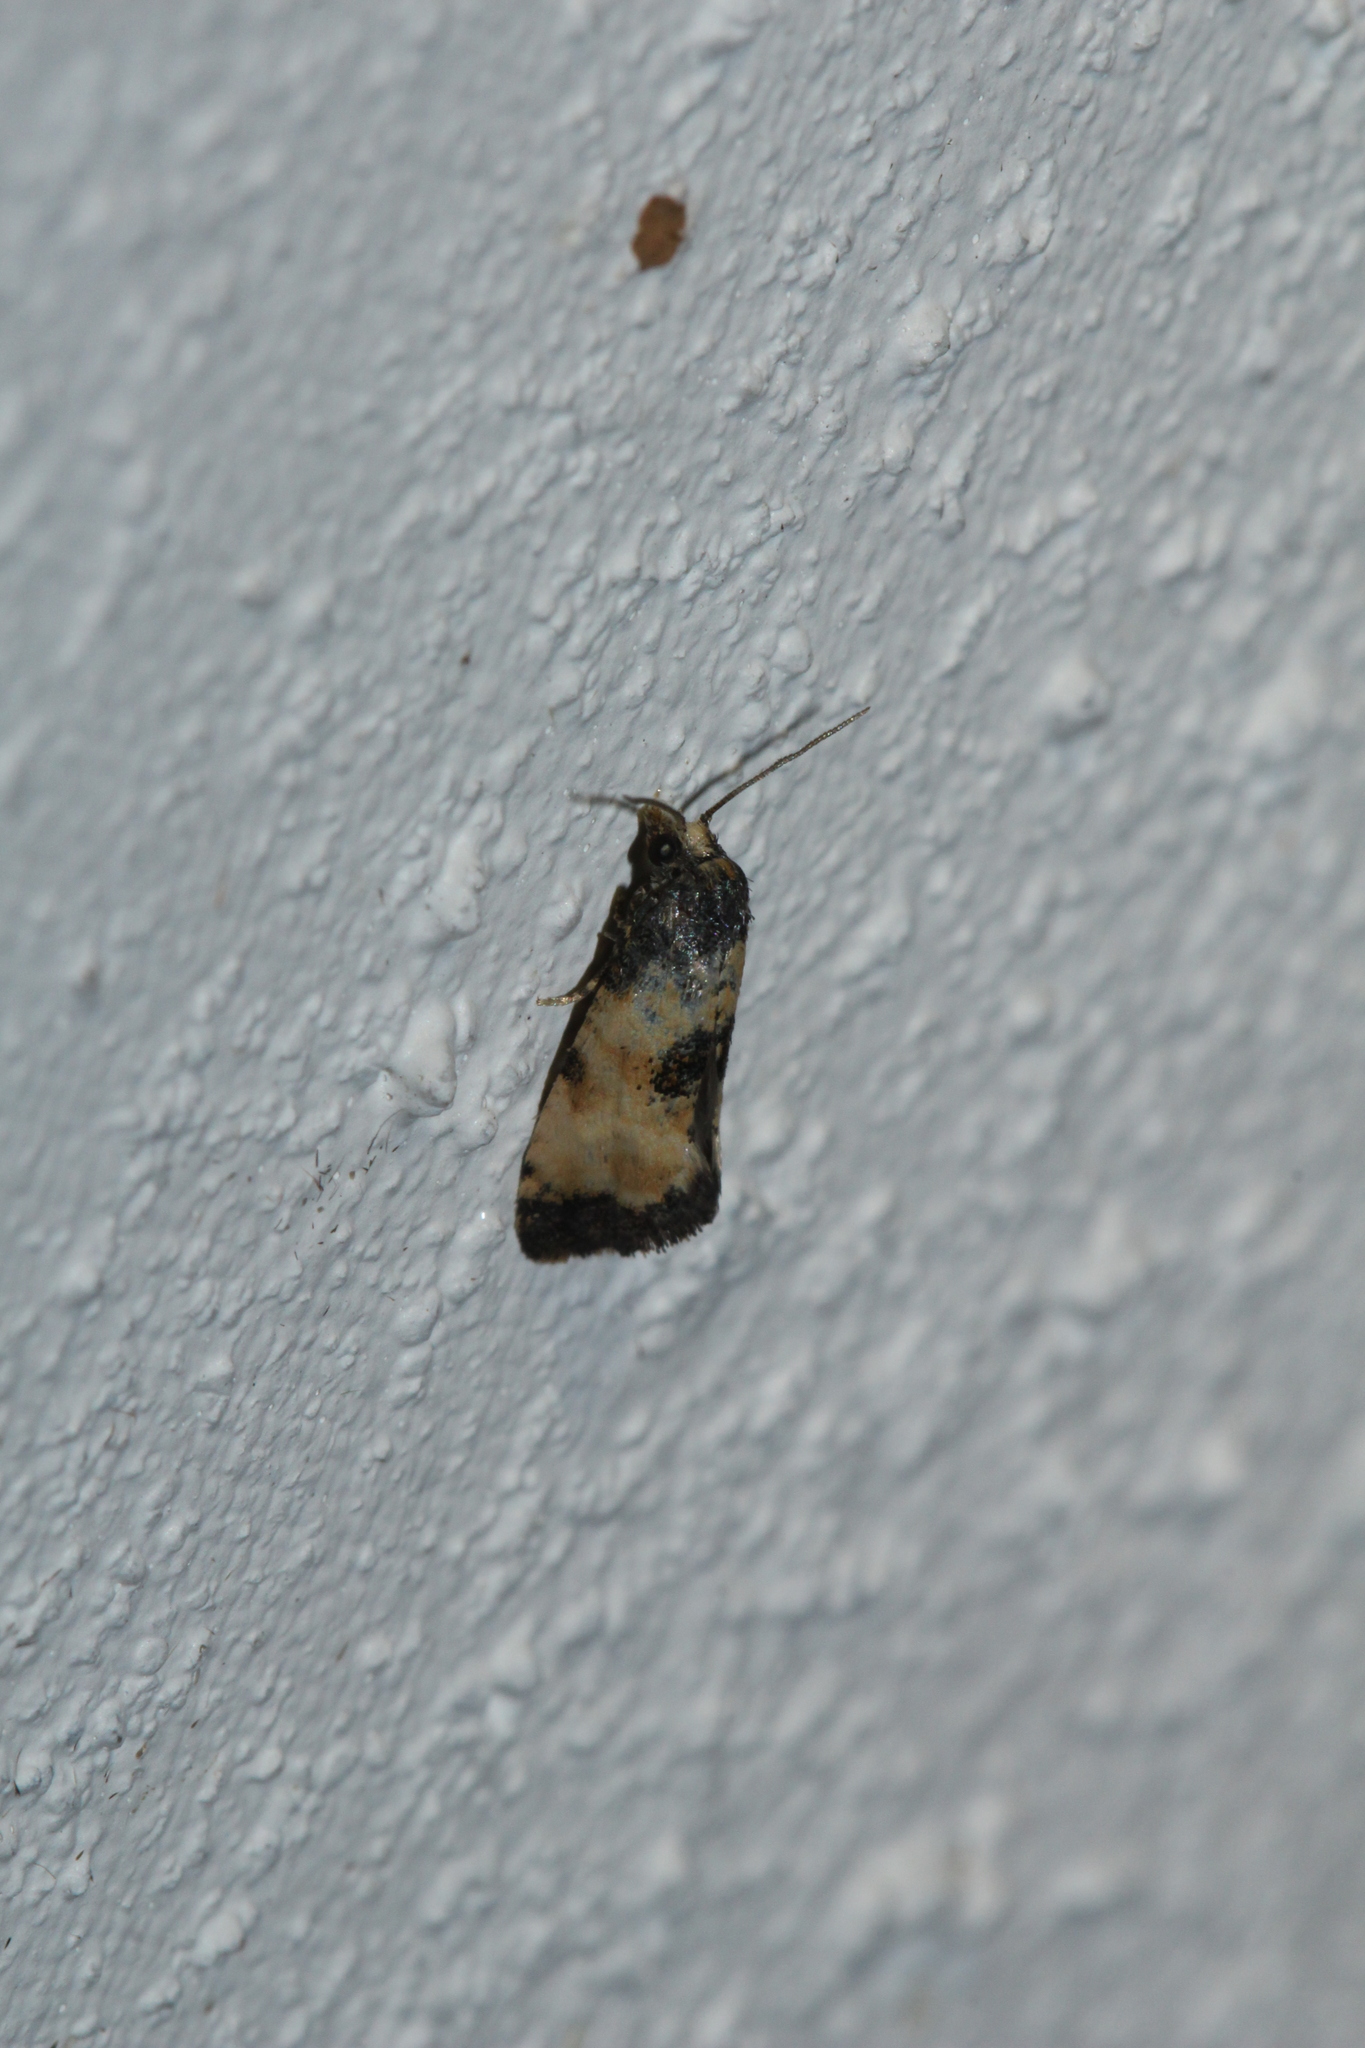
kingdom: Animalia
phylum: Arthropoda
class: Insecta
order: Lepidoptera
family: Tortricidae
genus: Cochylis
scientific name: Cochylis dubitana
